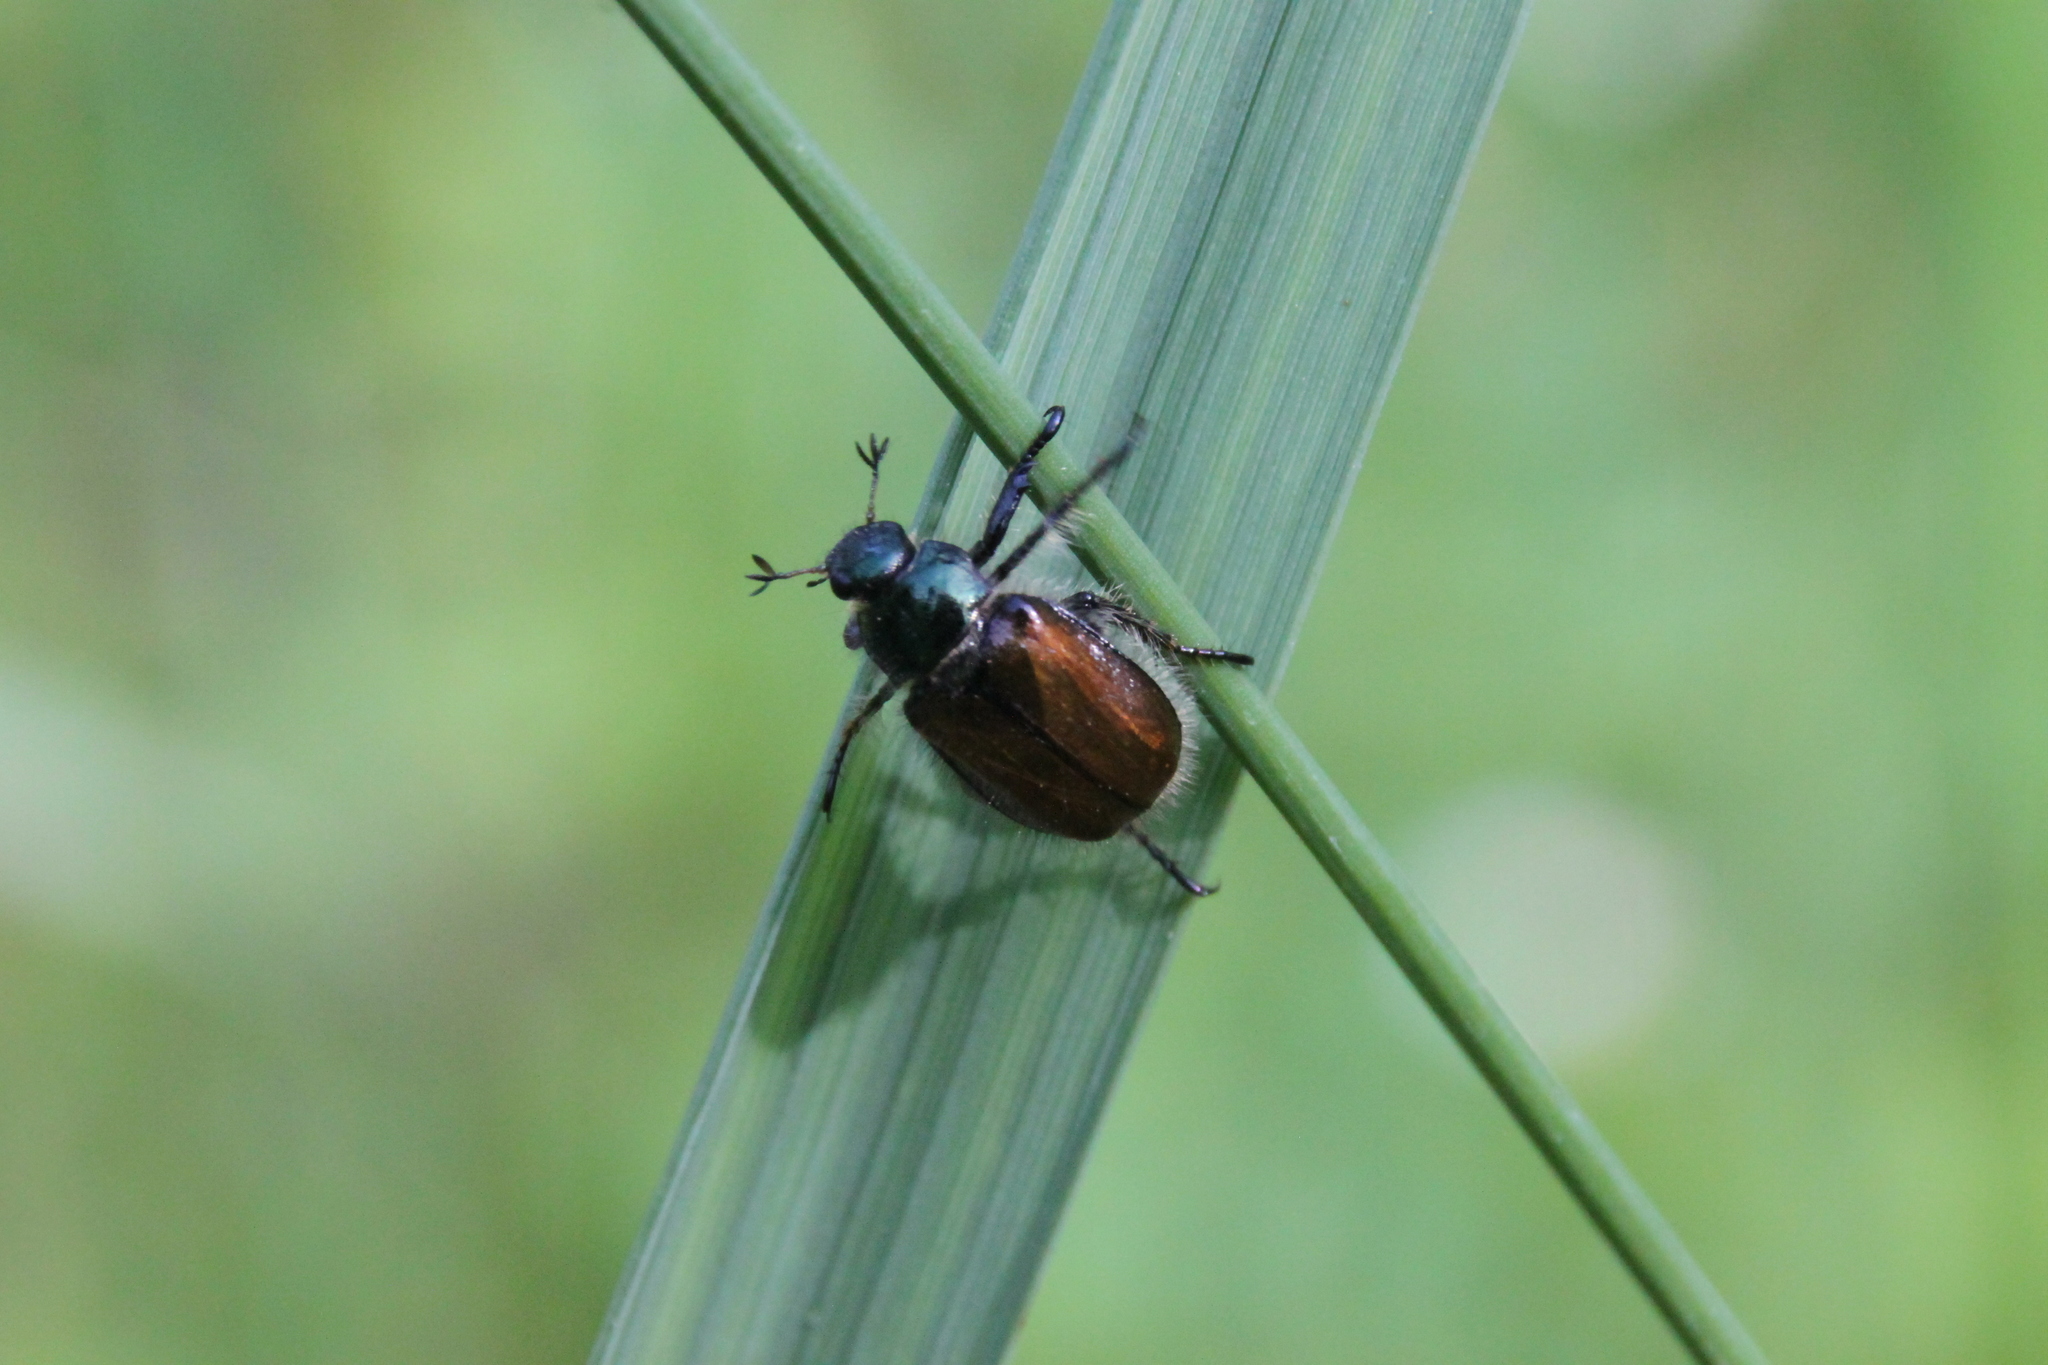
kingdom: Animalia
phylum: Arthropoda
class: Insecta
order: Coleoptera
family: Scarabaeidae
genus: Phyllopertha
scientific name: Phyllopertha horticola
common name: Garden chafer
